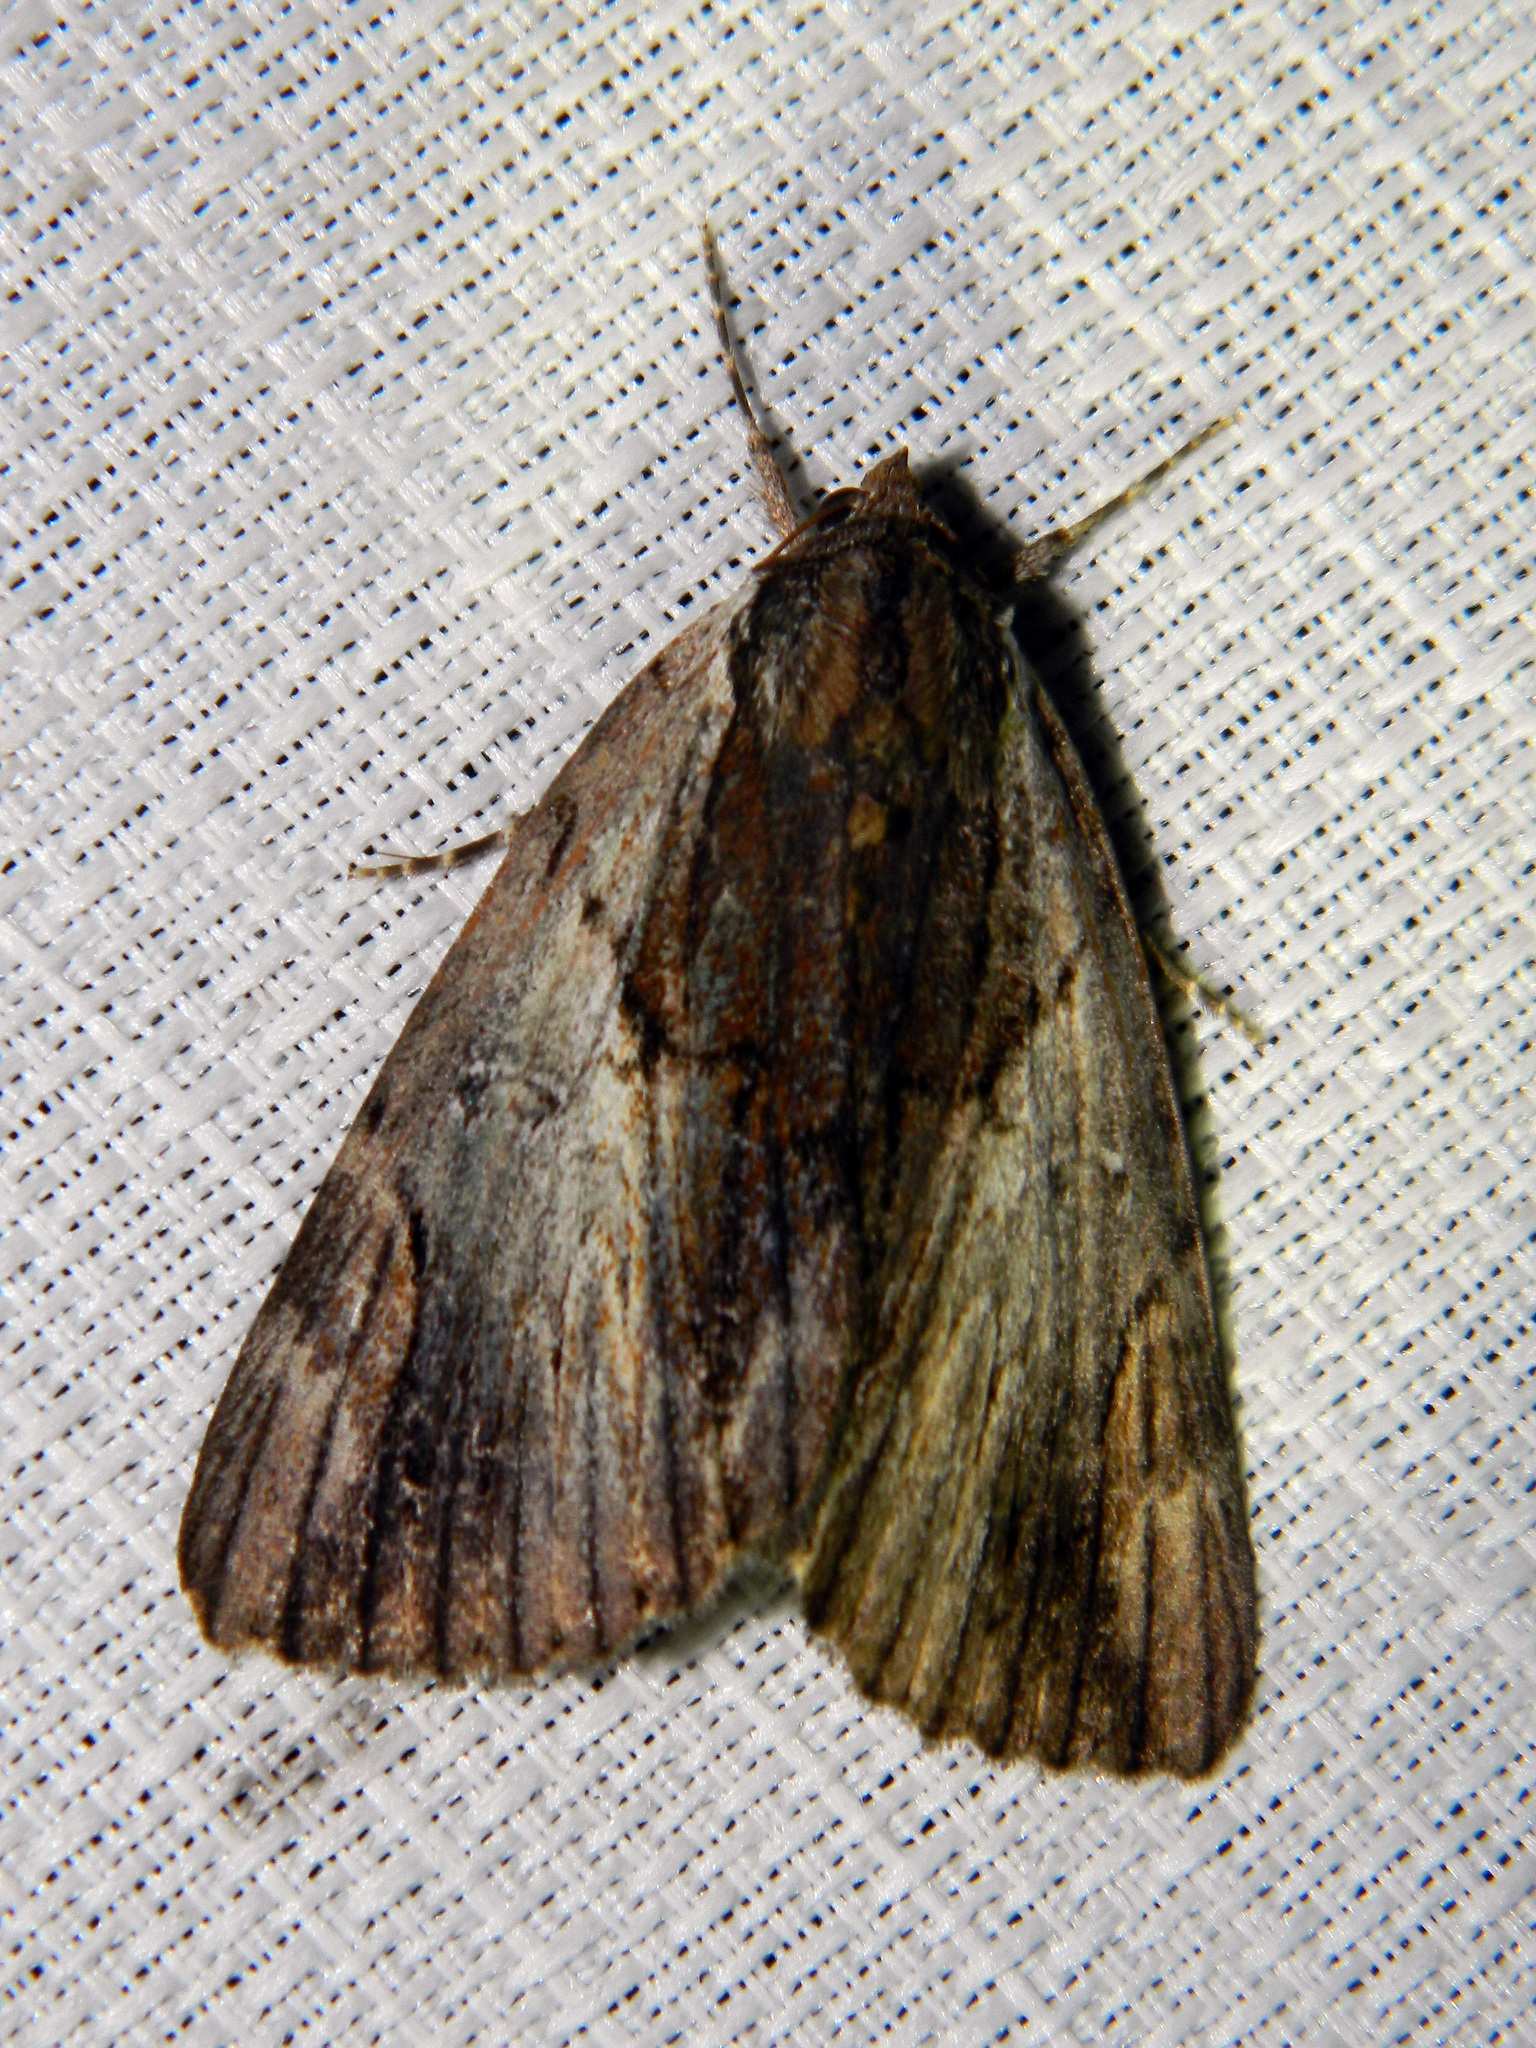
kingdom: Animalia
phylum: Arthropoda
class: Insecta
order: Lepidoptera
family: Erebidae
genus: Catocala
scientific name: Catocala ultronia
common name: Ultronia underwing
